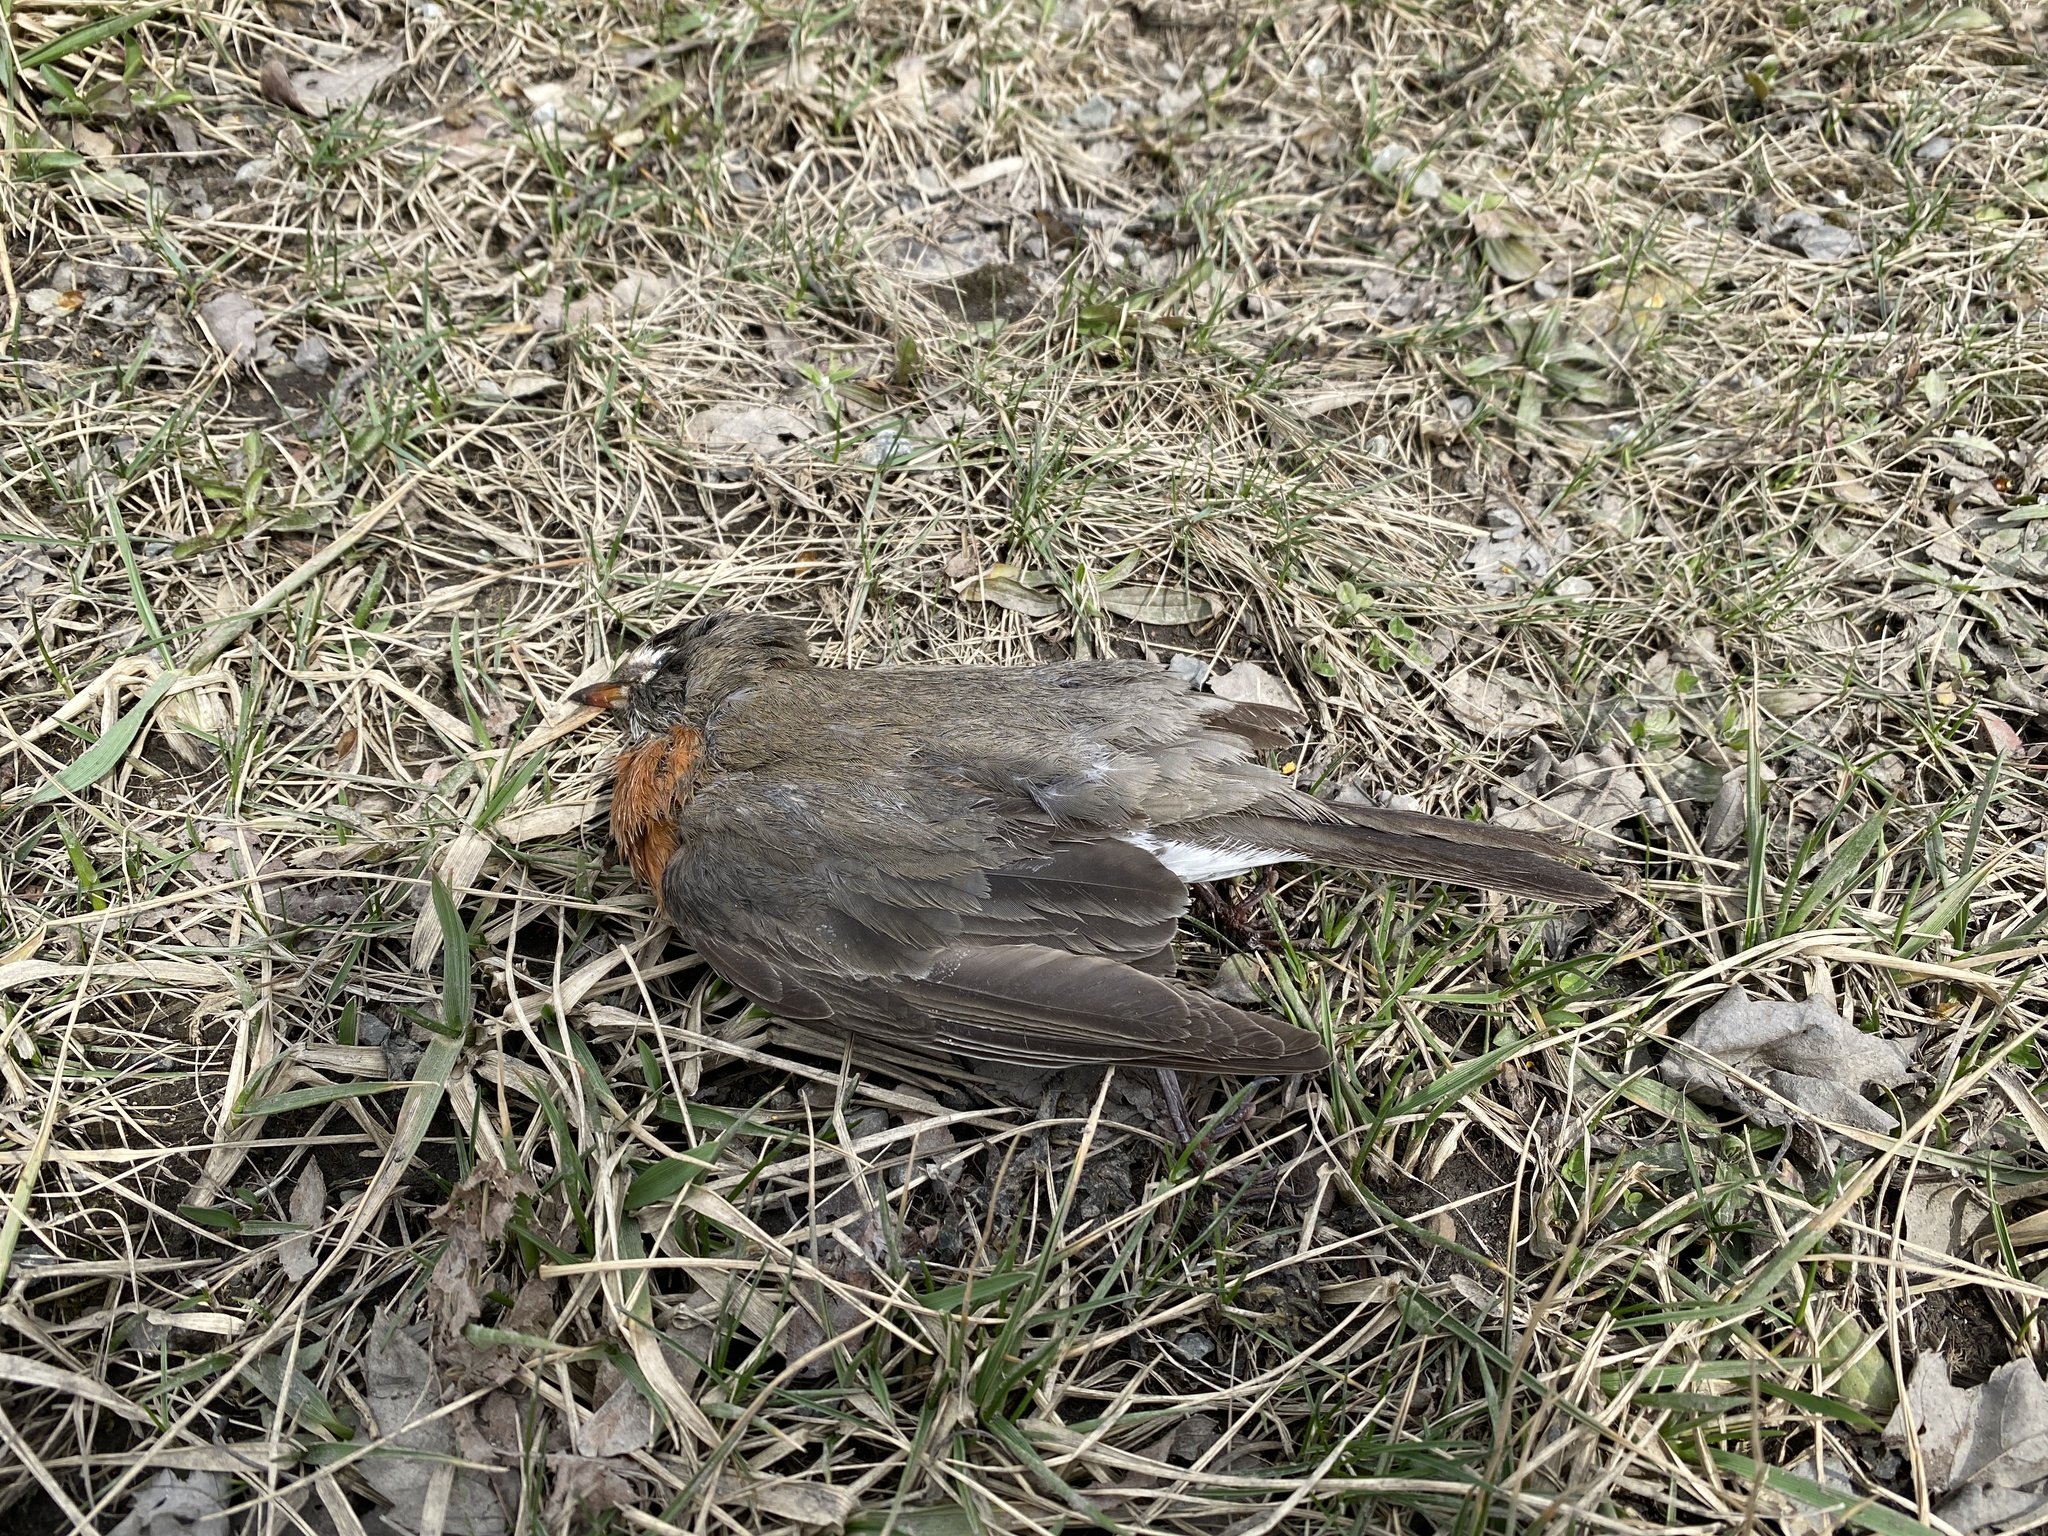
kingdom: Animalia
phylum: Chordata
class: Aves
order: Passeriformes
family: Turdidae
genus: Turdus
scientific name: Turdus migratorius
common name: American robin
